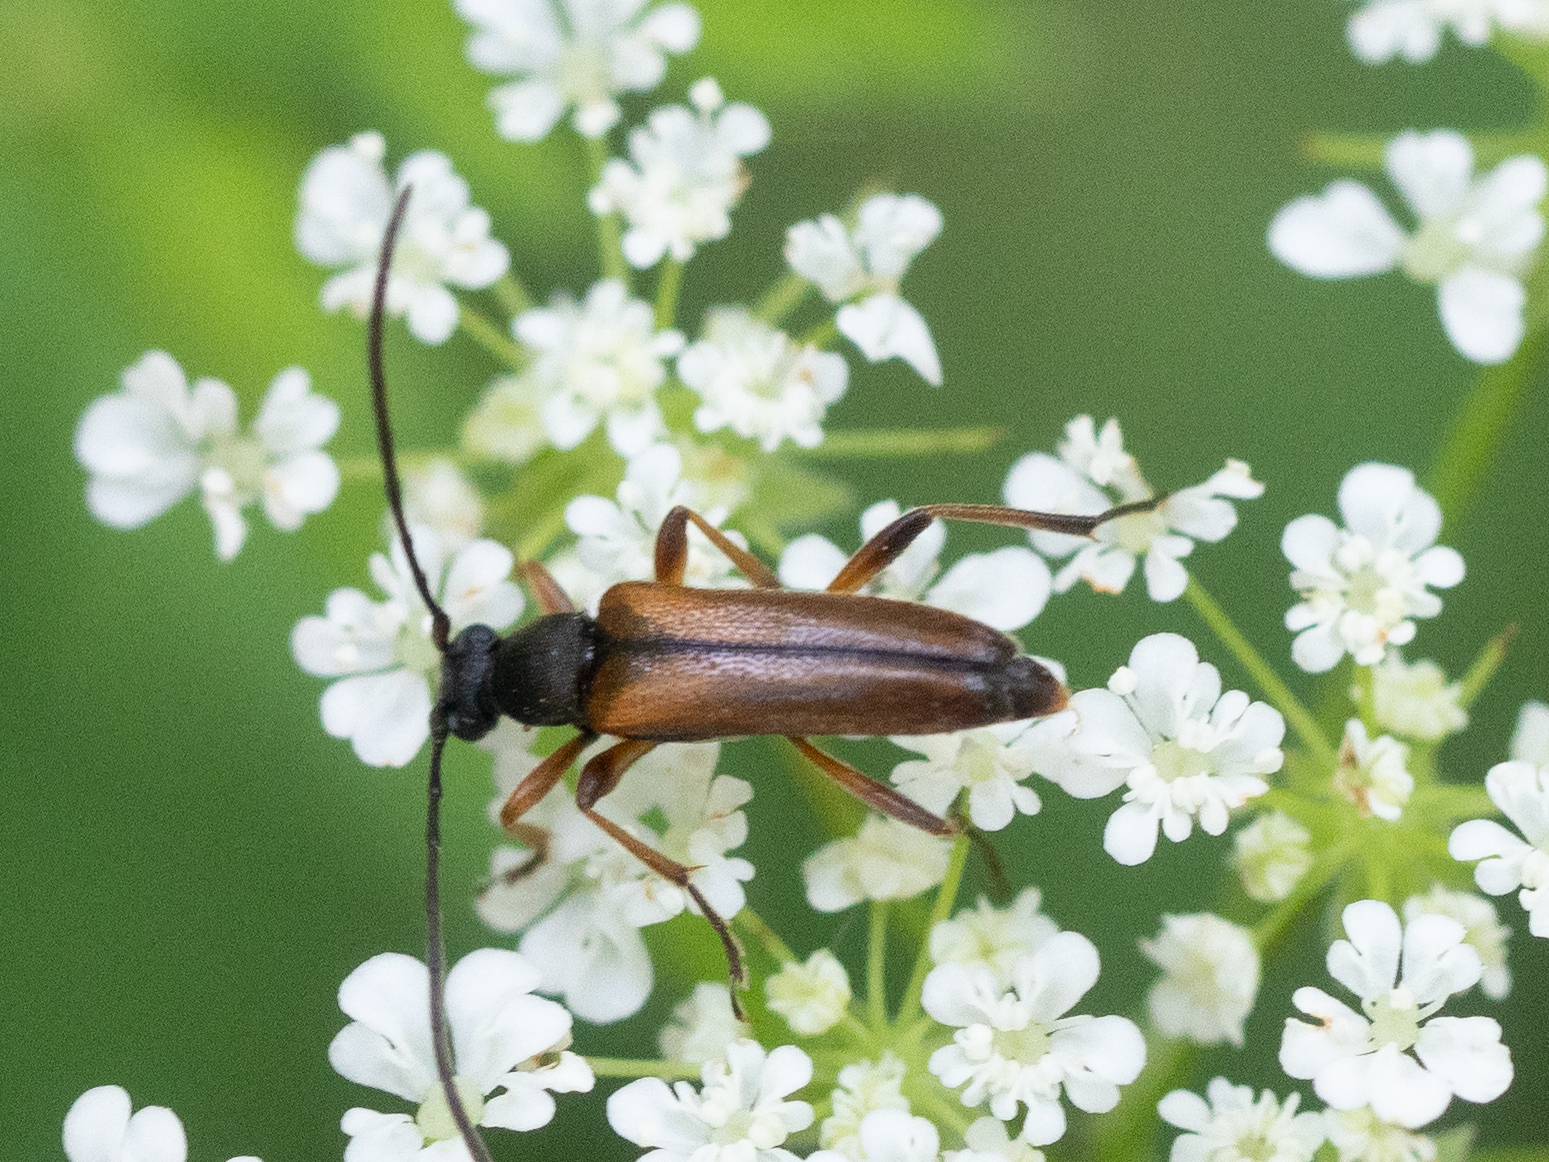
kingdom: Animalia
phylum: Arthropoda
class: Insecta
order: Coleoptera
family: Cerambycidae
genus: Alosterna
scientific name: Alosterna tabacicolor
